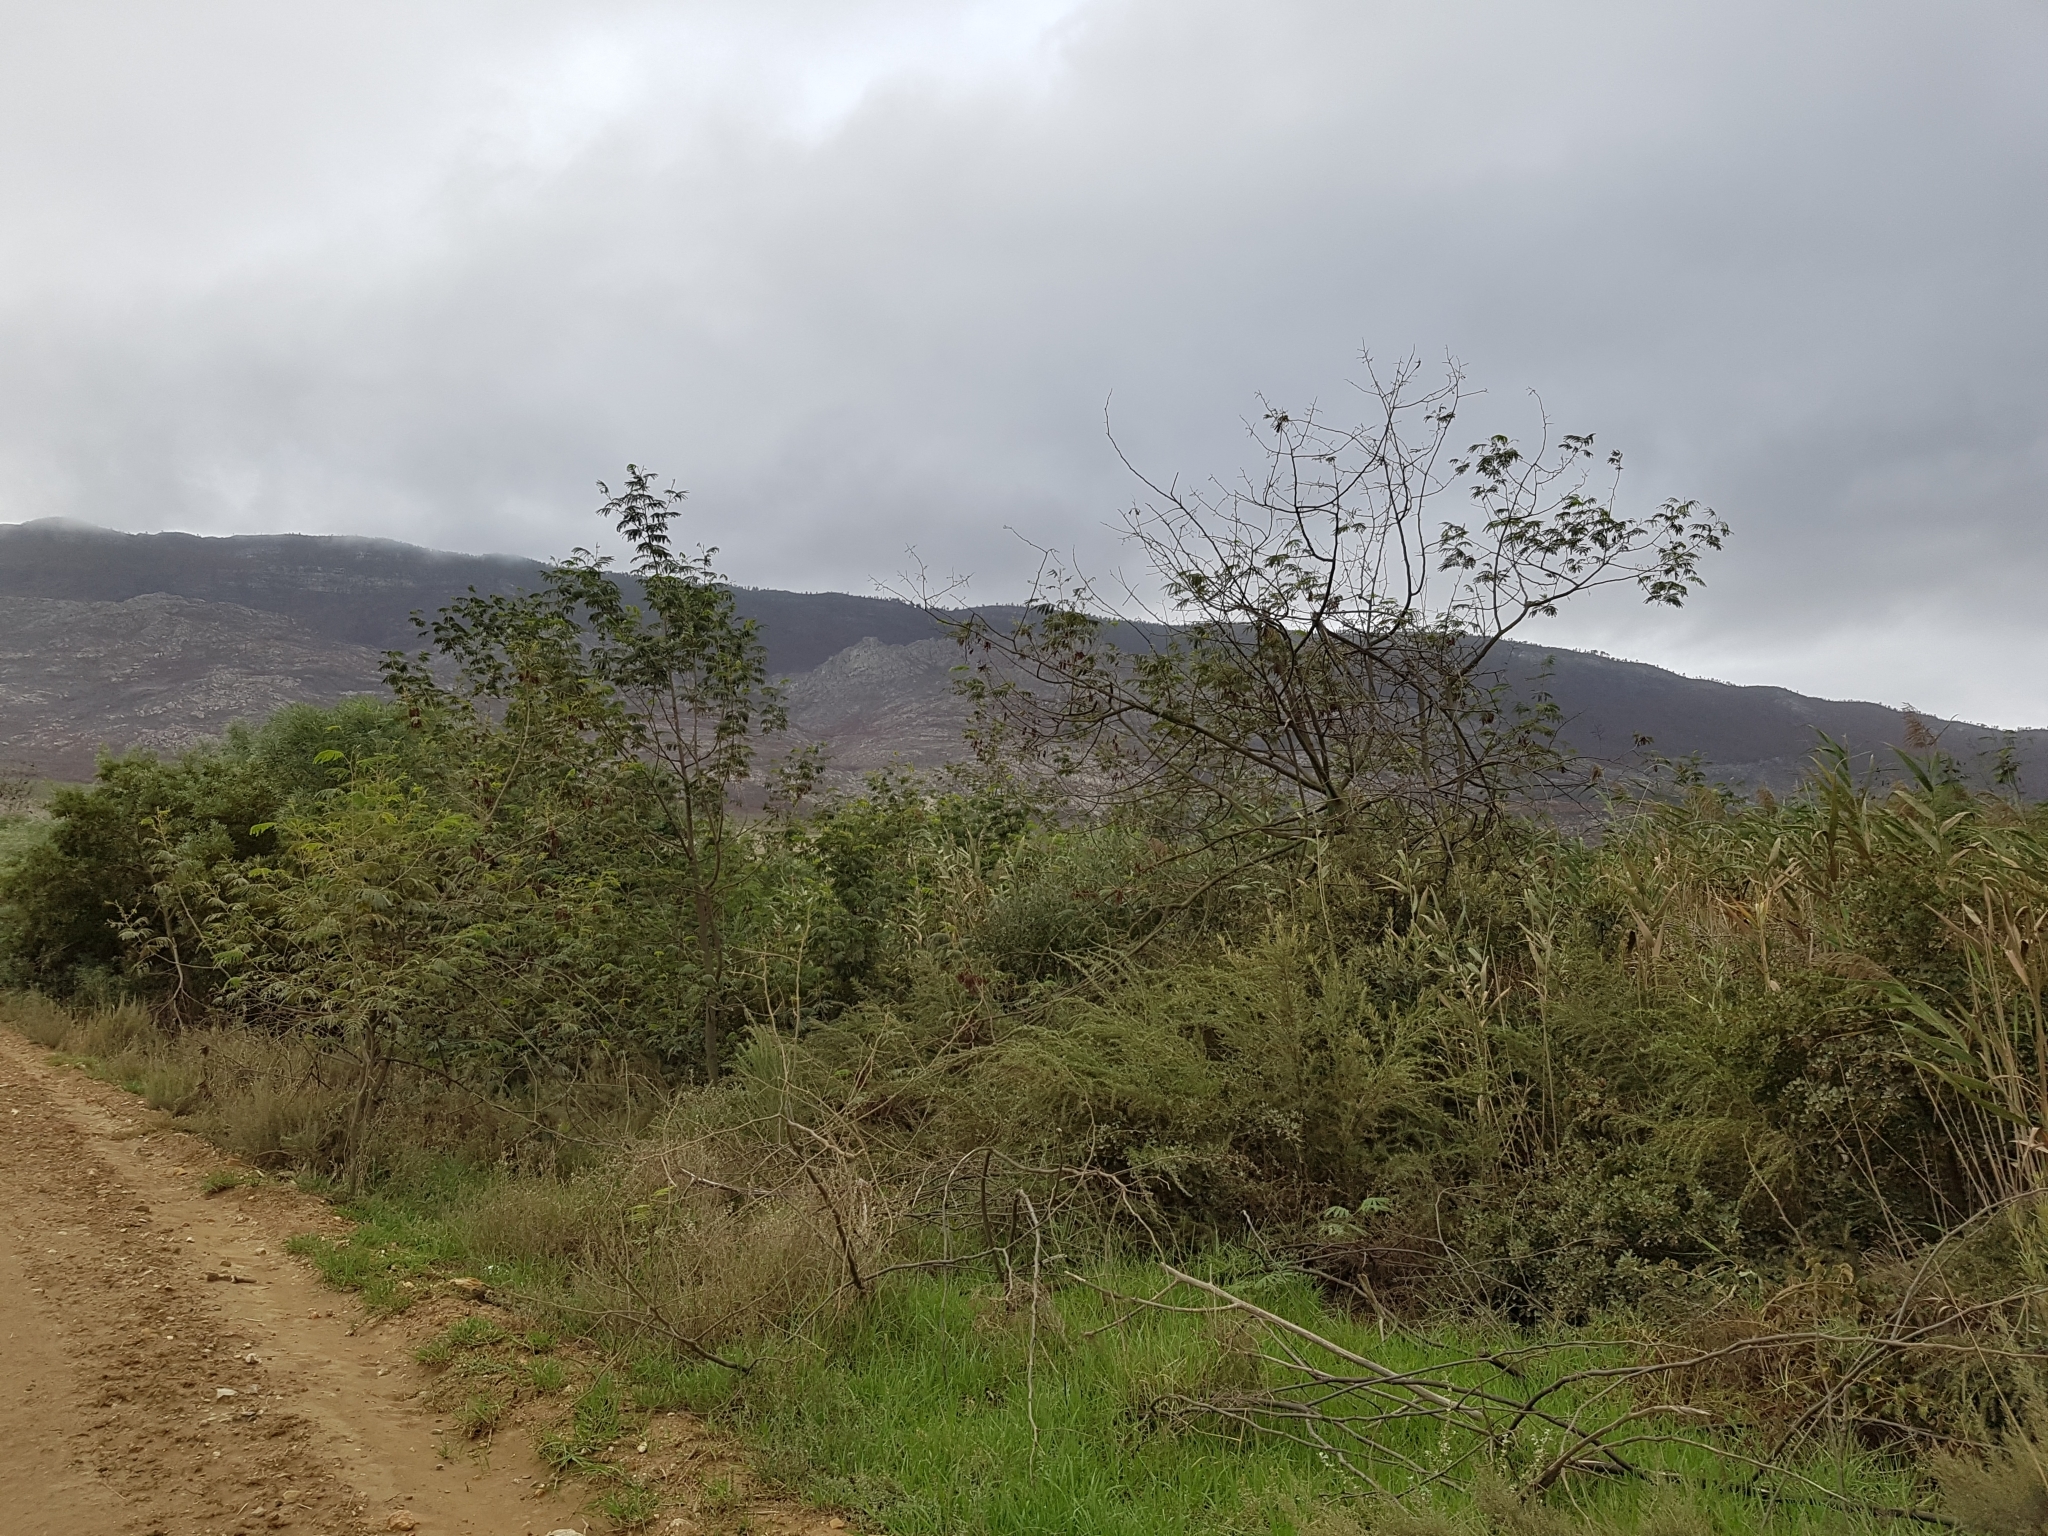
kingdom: Plantae
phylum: Tracheophyta
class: Magnoliopsida
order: Fabales
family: Fabaceae
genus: Paraserianthes
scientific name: Paraserianthes lophantha
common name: Plume albizia
